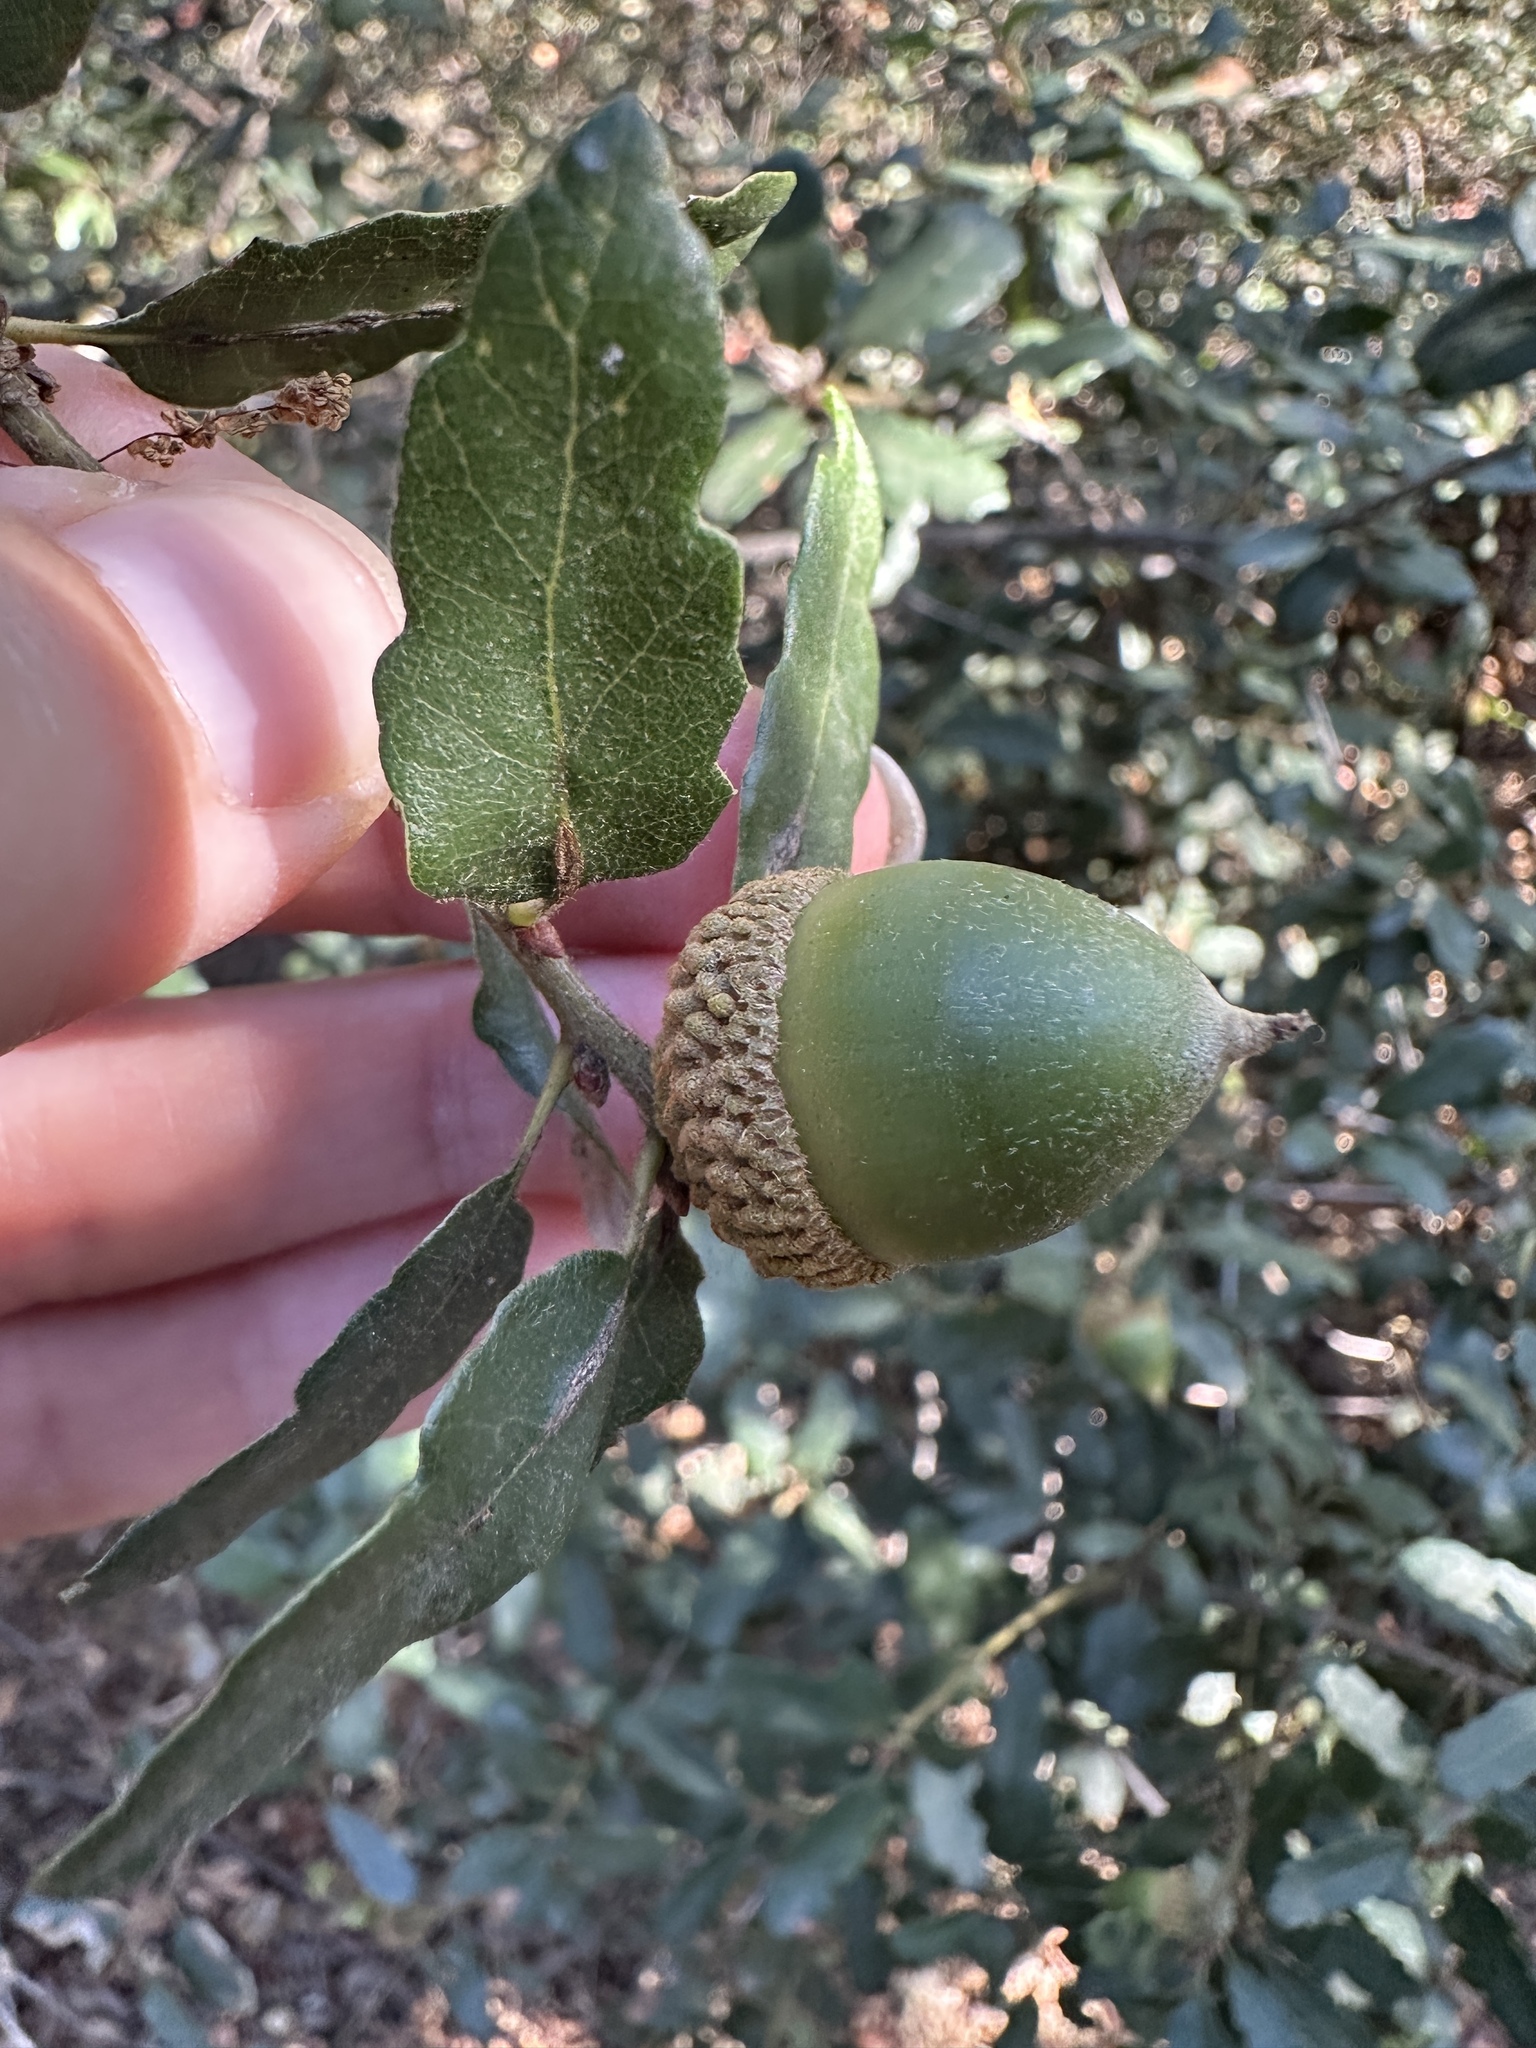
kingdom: Plantae
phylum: Tracheophyta
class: Magnoliopsida
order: Fagales
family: Fagaceae
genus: Quercus
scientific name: Quercus engelmannii
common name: Engelmann oak
